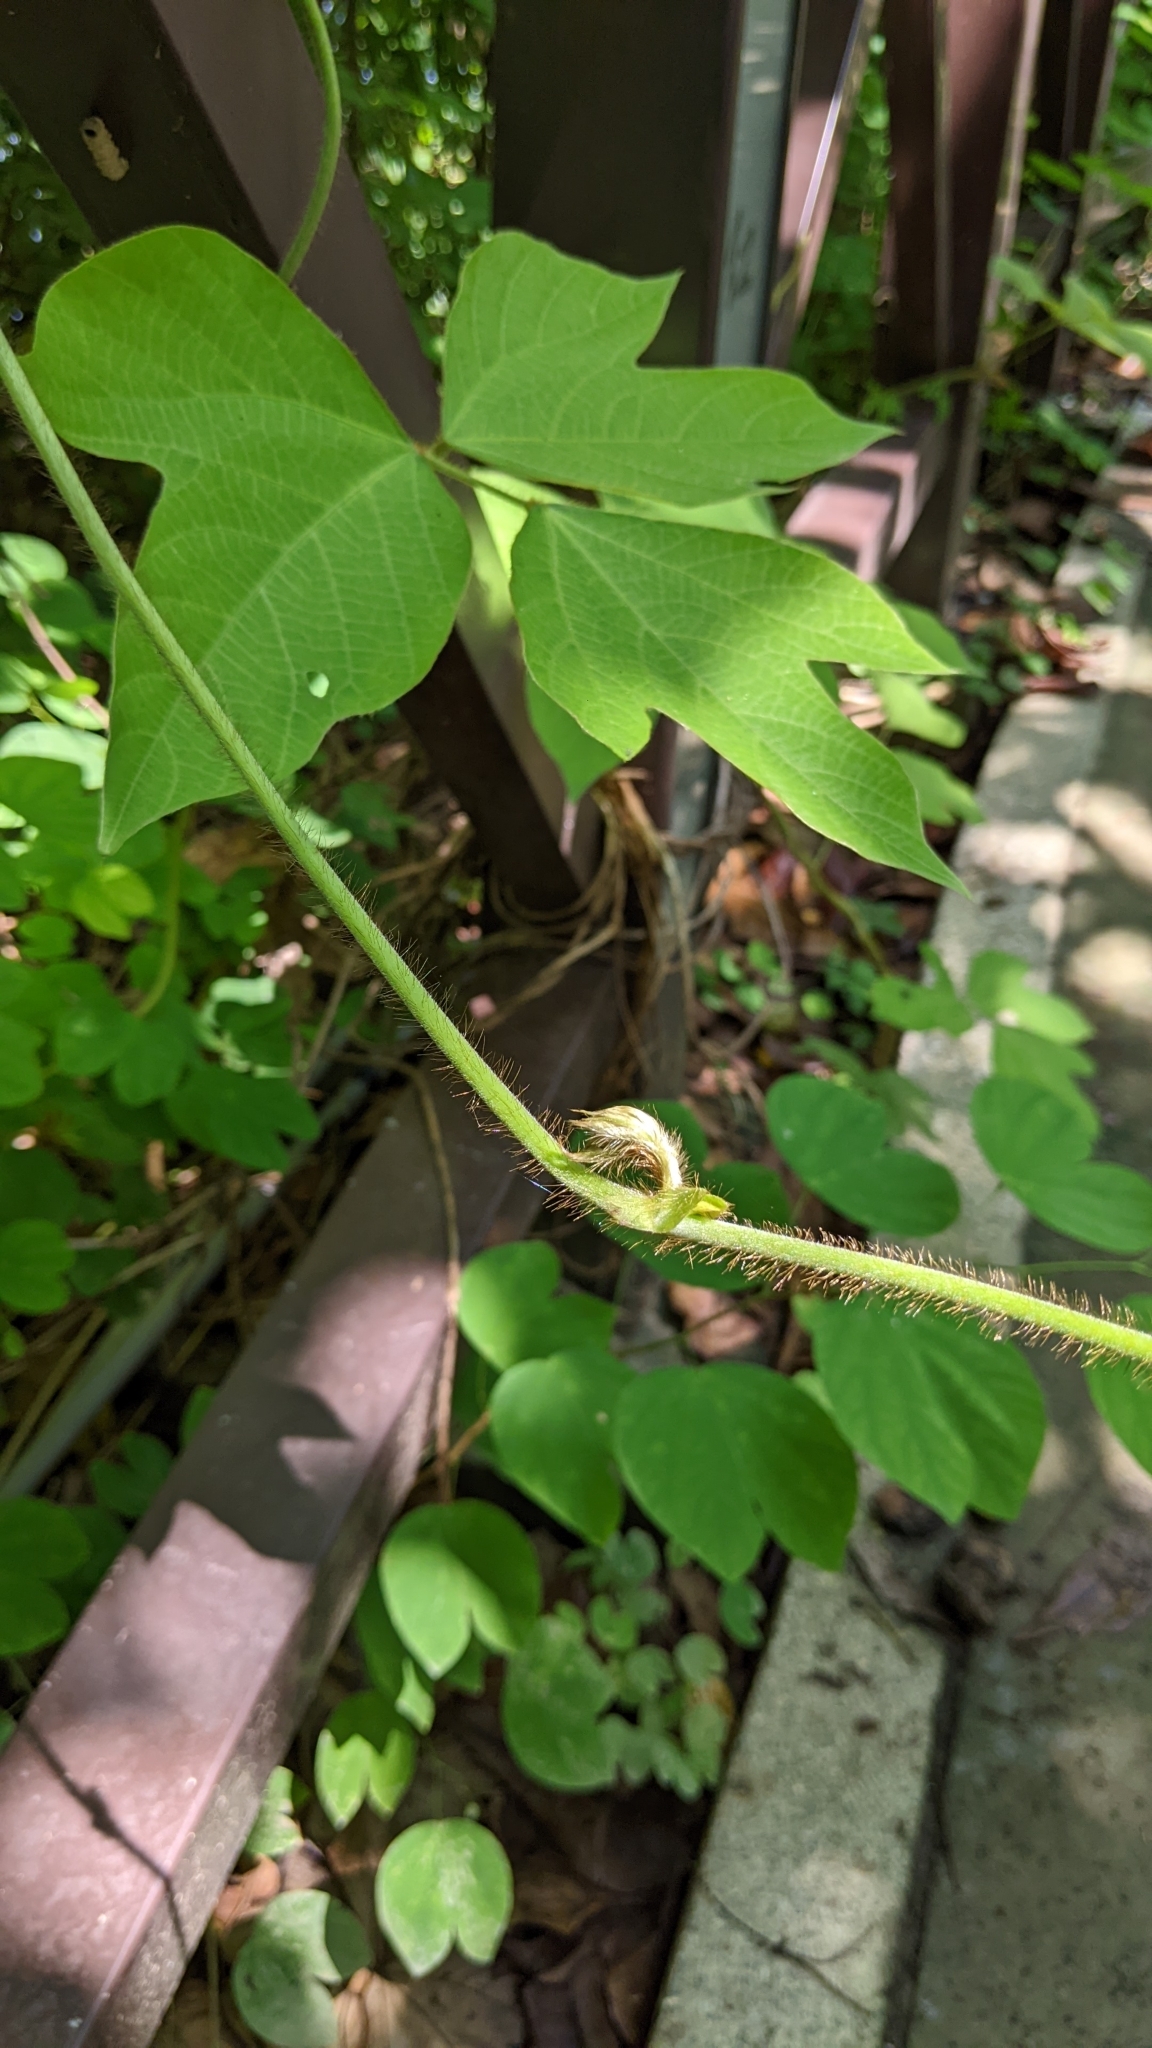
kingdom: Plantae
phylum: Tracheophyta
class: Magnoliopsida
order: Fabales
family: Fabaceae
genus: Pueraria
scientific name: Pueraria montana
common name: Kudzu
